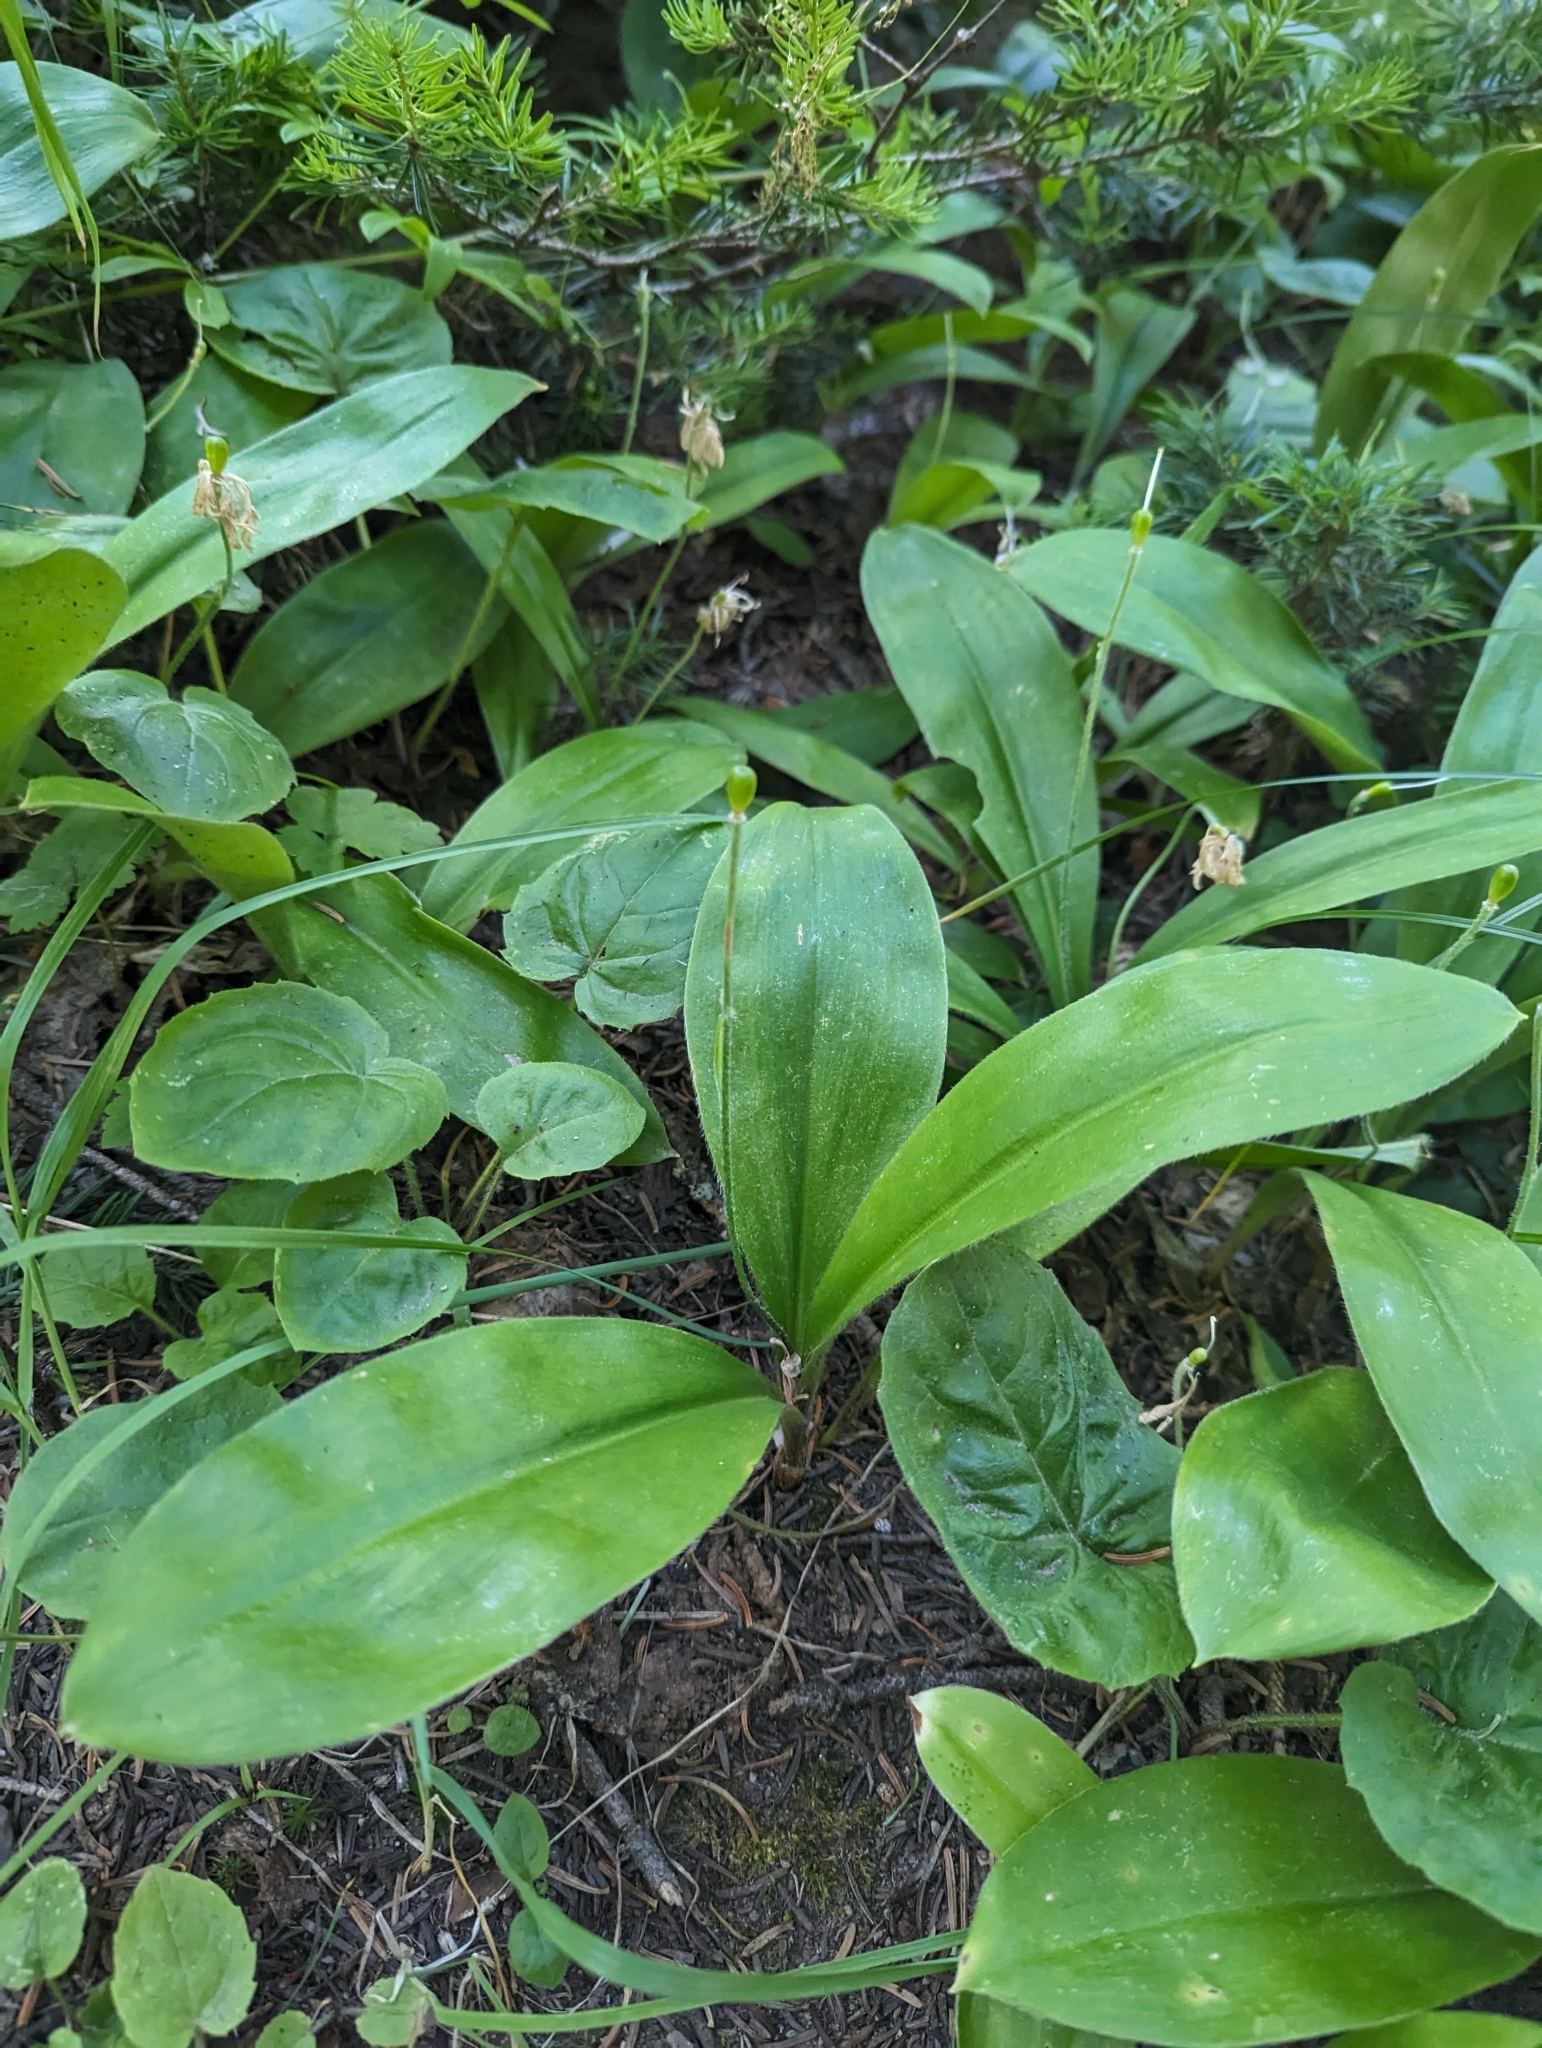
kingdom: Plantae
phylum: Tracheophyta
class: Liliopsida
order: Liliales
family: Liliaceae
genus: Clintonia
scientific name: Clintonia uniflora
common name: Queen's cup
